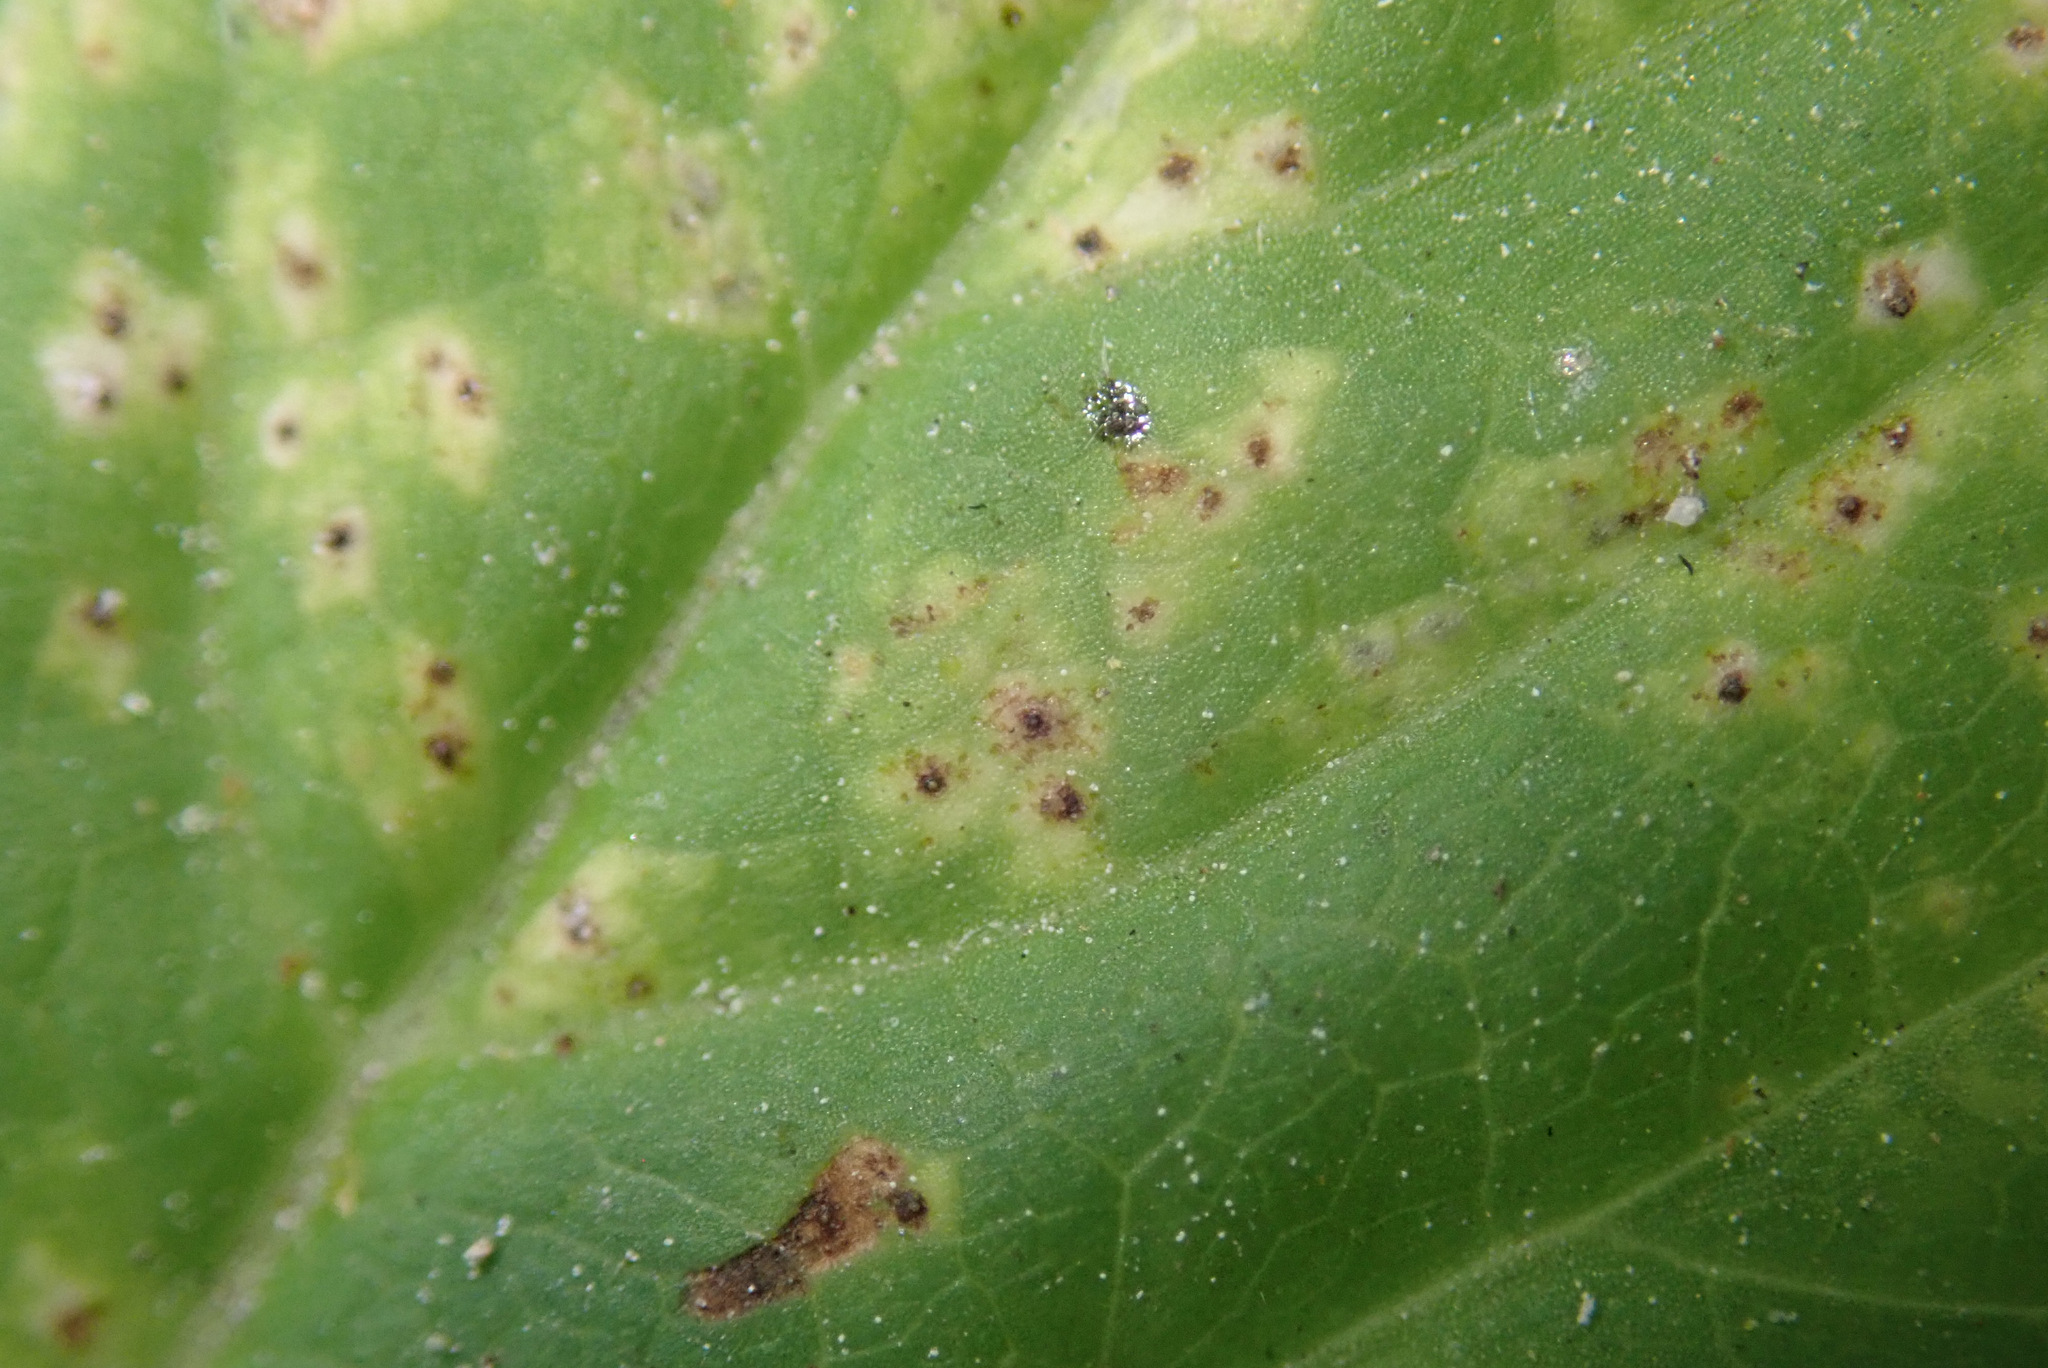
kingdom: Fungi
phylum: Ascomycota
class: Dothideomycetes
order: Mycosphaerellales
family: Mycosphaerellaceae
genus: Mycosphaerella
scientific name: Mycosphaerella podagrariae
